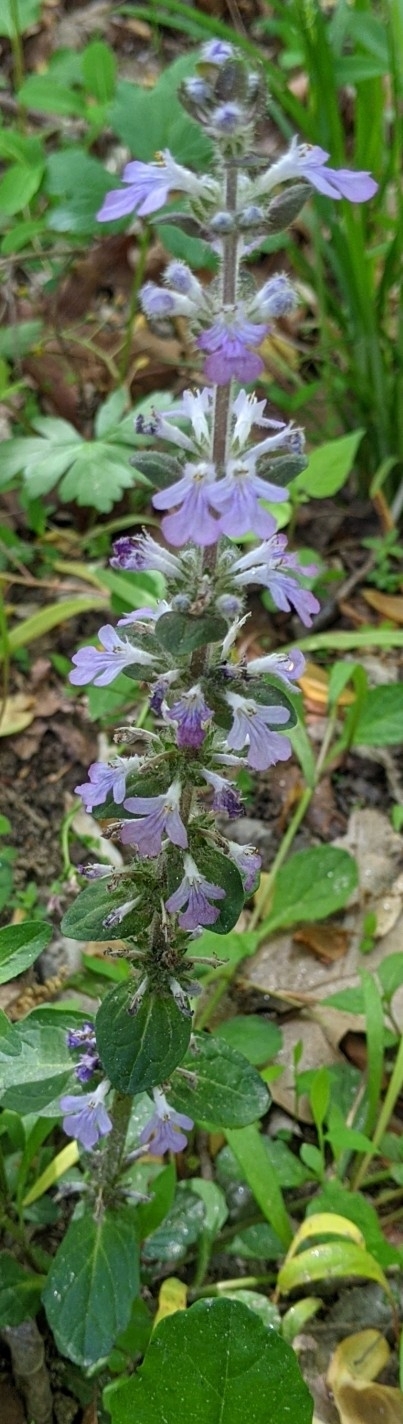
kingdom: Plantae
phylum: Tracheophyta
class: Magnoliopsida
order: Lamiales
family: Lamiaceae
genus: Ajuga
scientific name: Ajuga reptans
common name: Bugle
